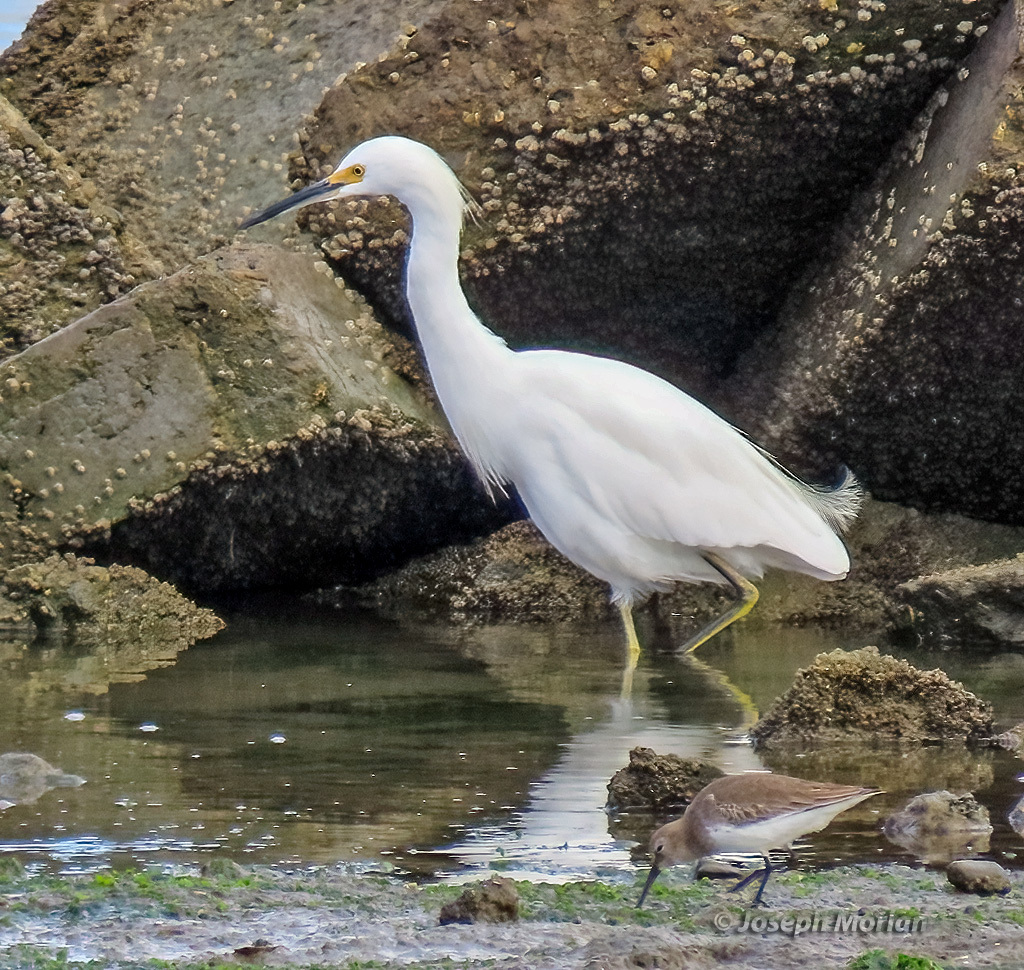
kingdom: Animalia
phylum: Chordata
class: Aves
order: Pelecaniformes
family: Ardeidae
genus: Egretta
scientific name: Egretta thula
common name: Snowy egret
